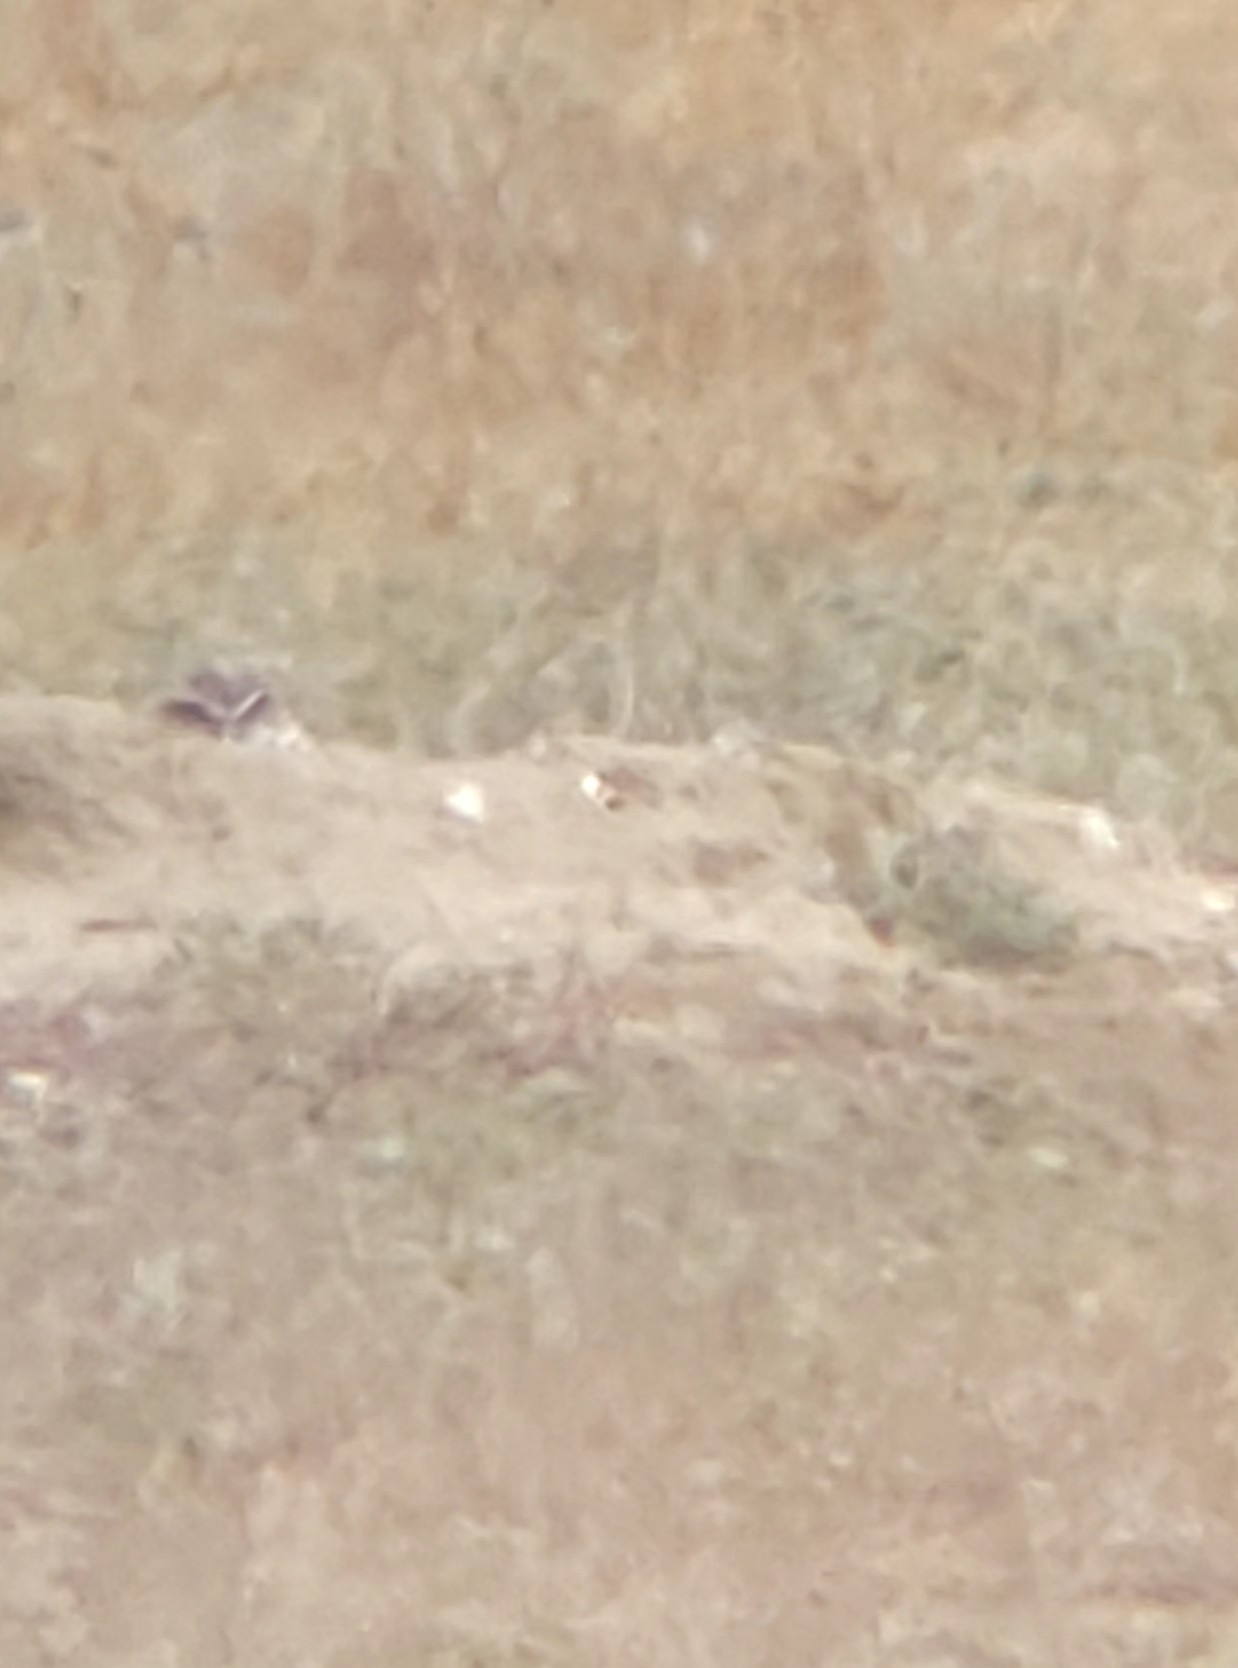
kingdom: Animalia
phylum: Chordata
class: Aves
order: Strigiformes
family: Strigidae
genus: Athene
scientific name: Athene cunicularia
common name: Burrowing owl
